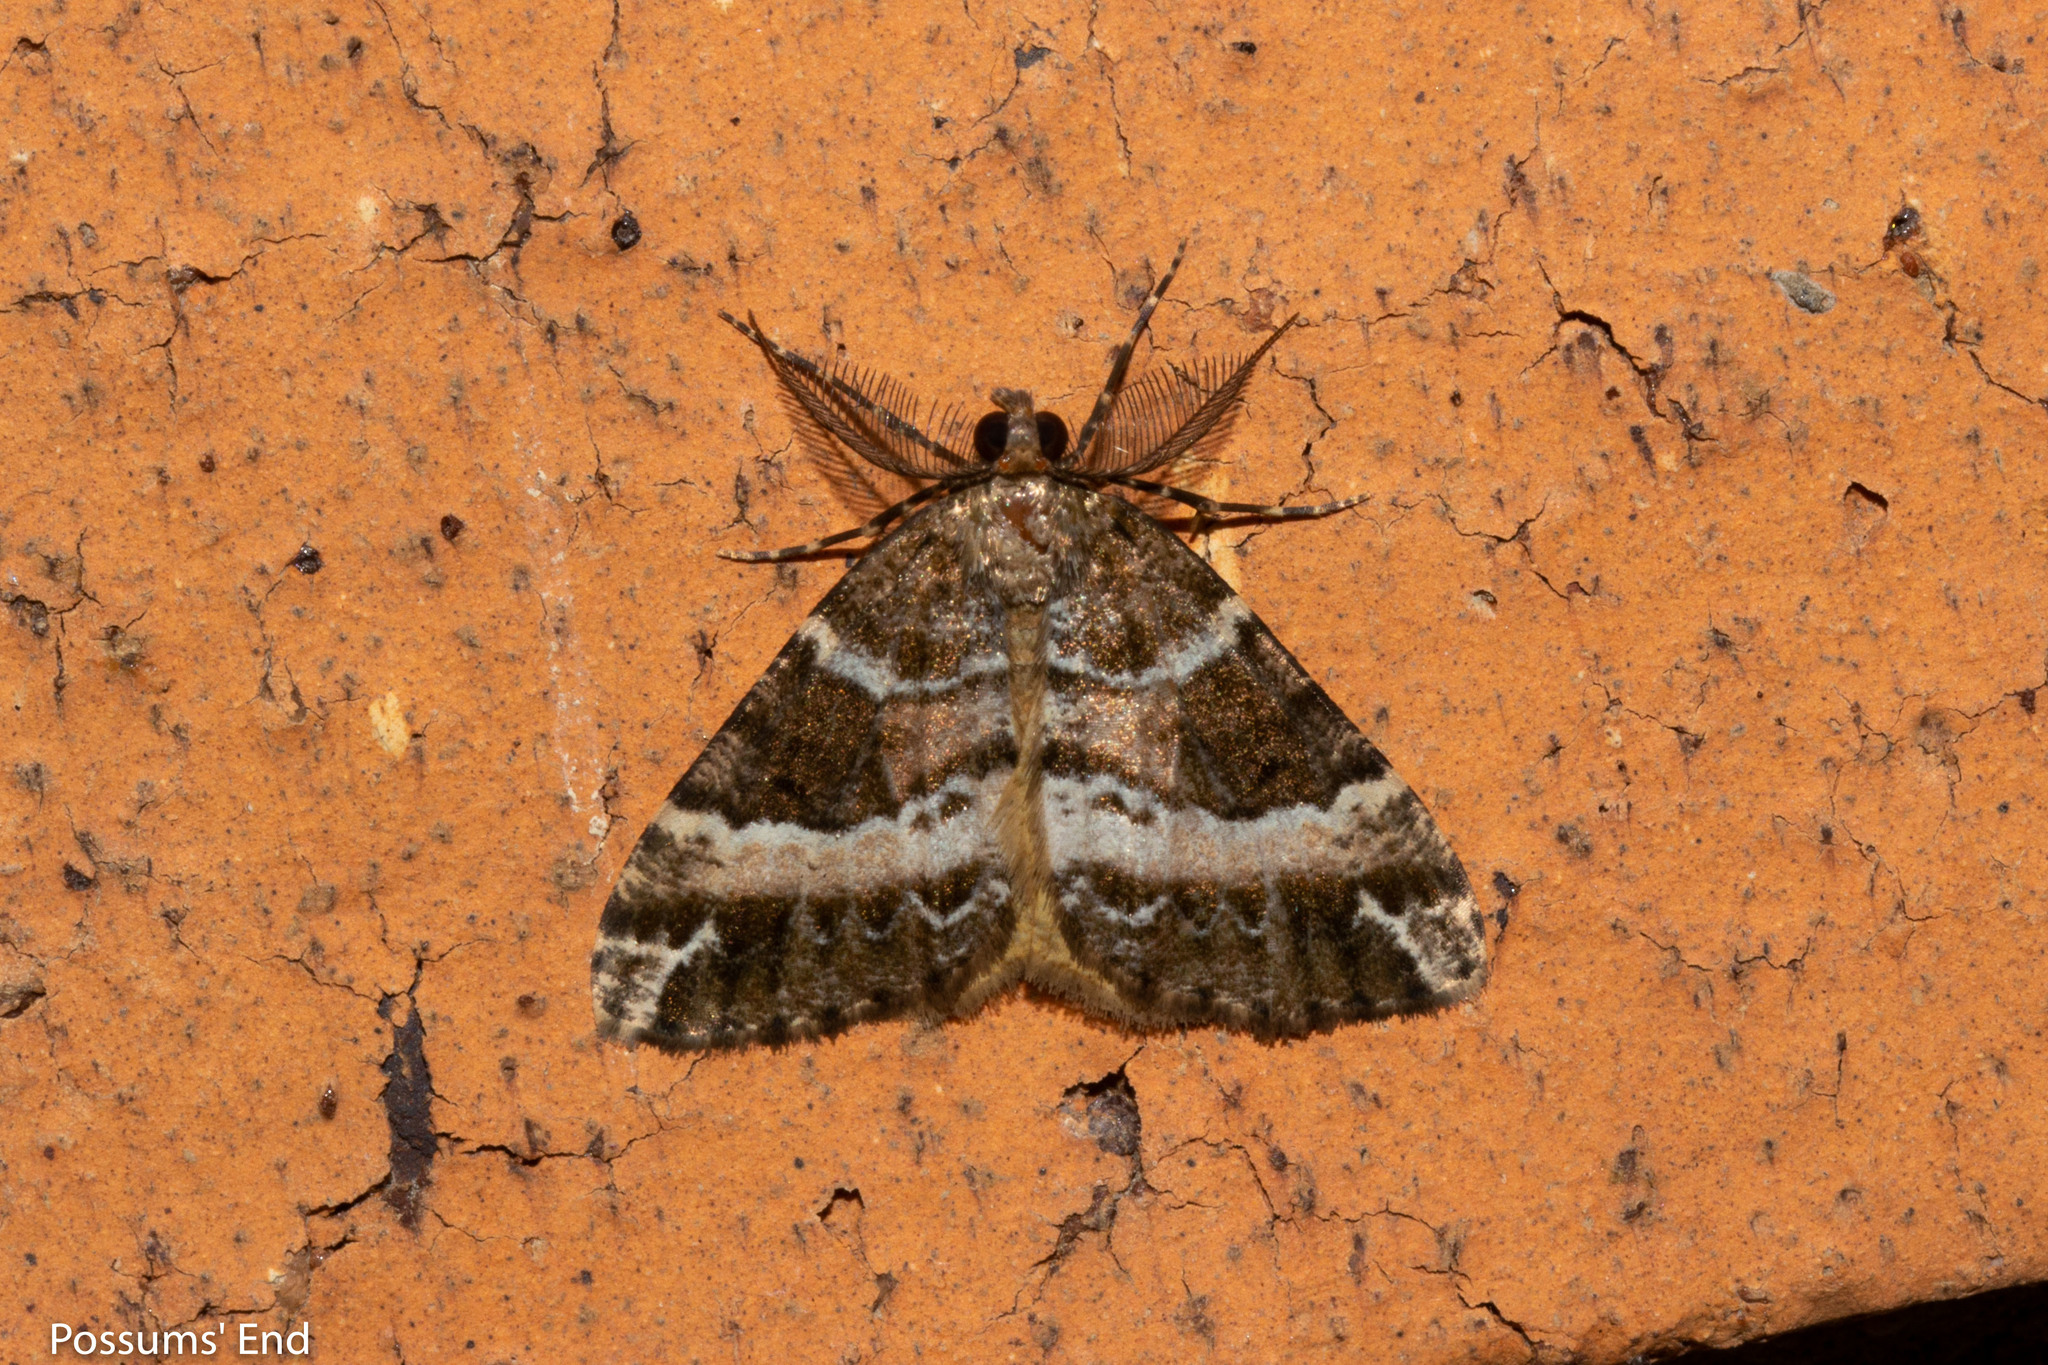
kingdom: Animalia
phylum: Arthropoda
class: Insecta
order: Lepidoptera
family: Geometridae
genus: Pseudocoremia
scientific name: Pseudocoremia
